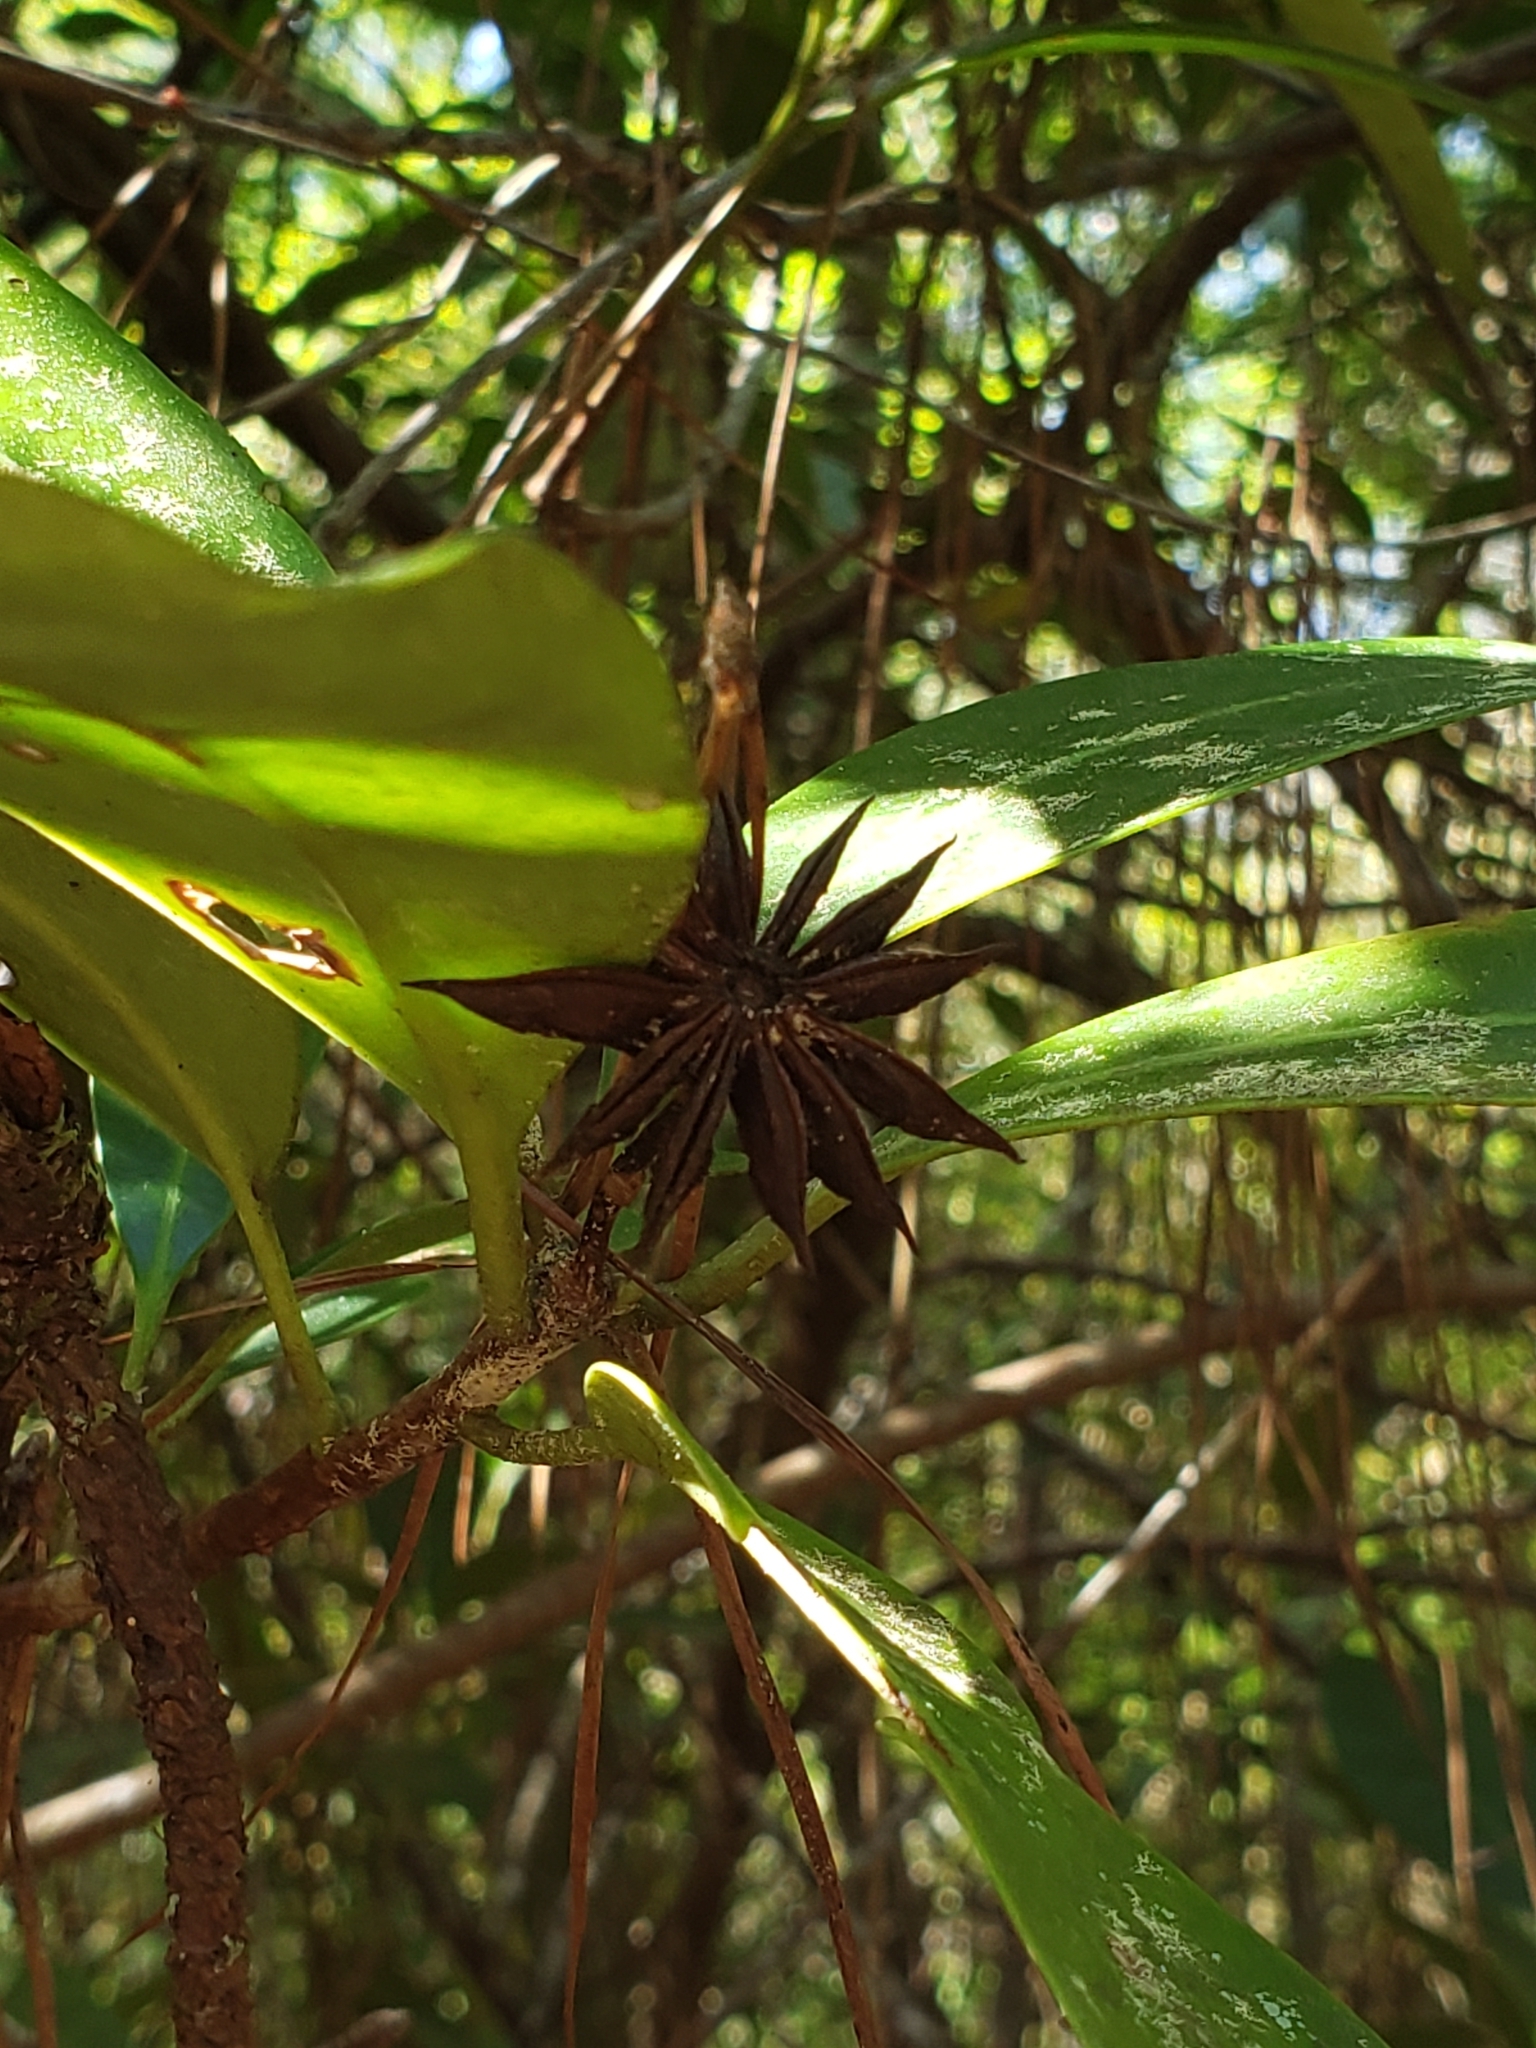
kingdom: Plantae
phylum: Tracheophyta
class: Magnoliopsida
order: Austrobaileyales
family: Schisandraceae
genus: Illicium
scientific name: Illicium floridanum
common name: Florida anisetree
